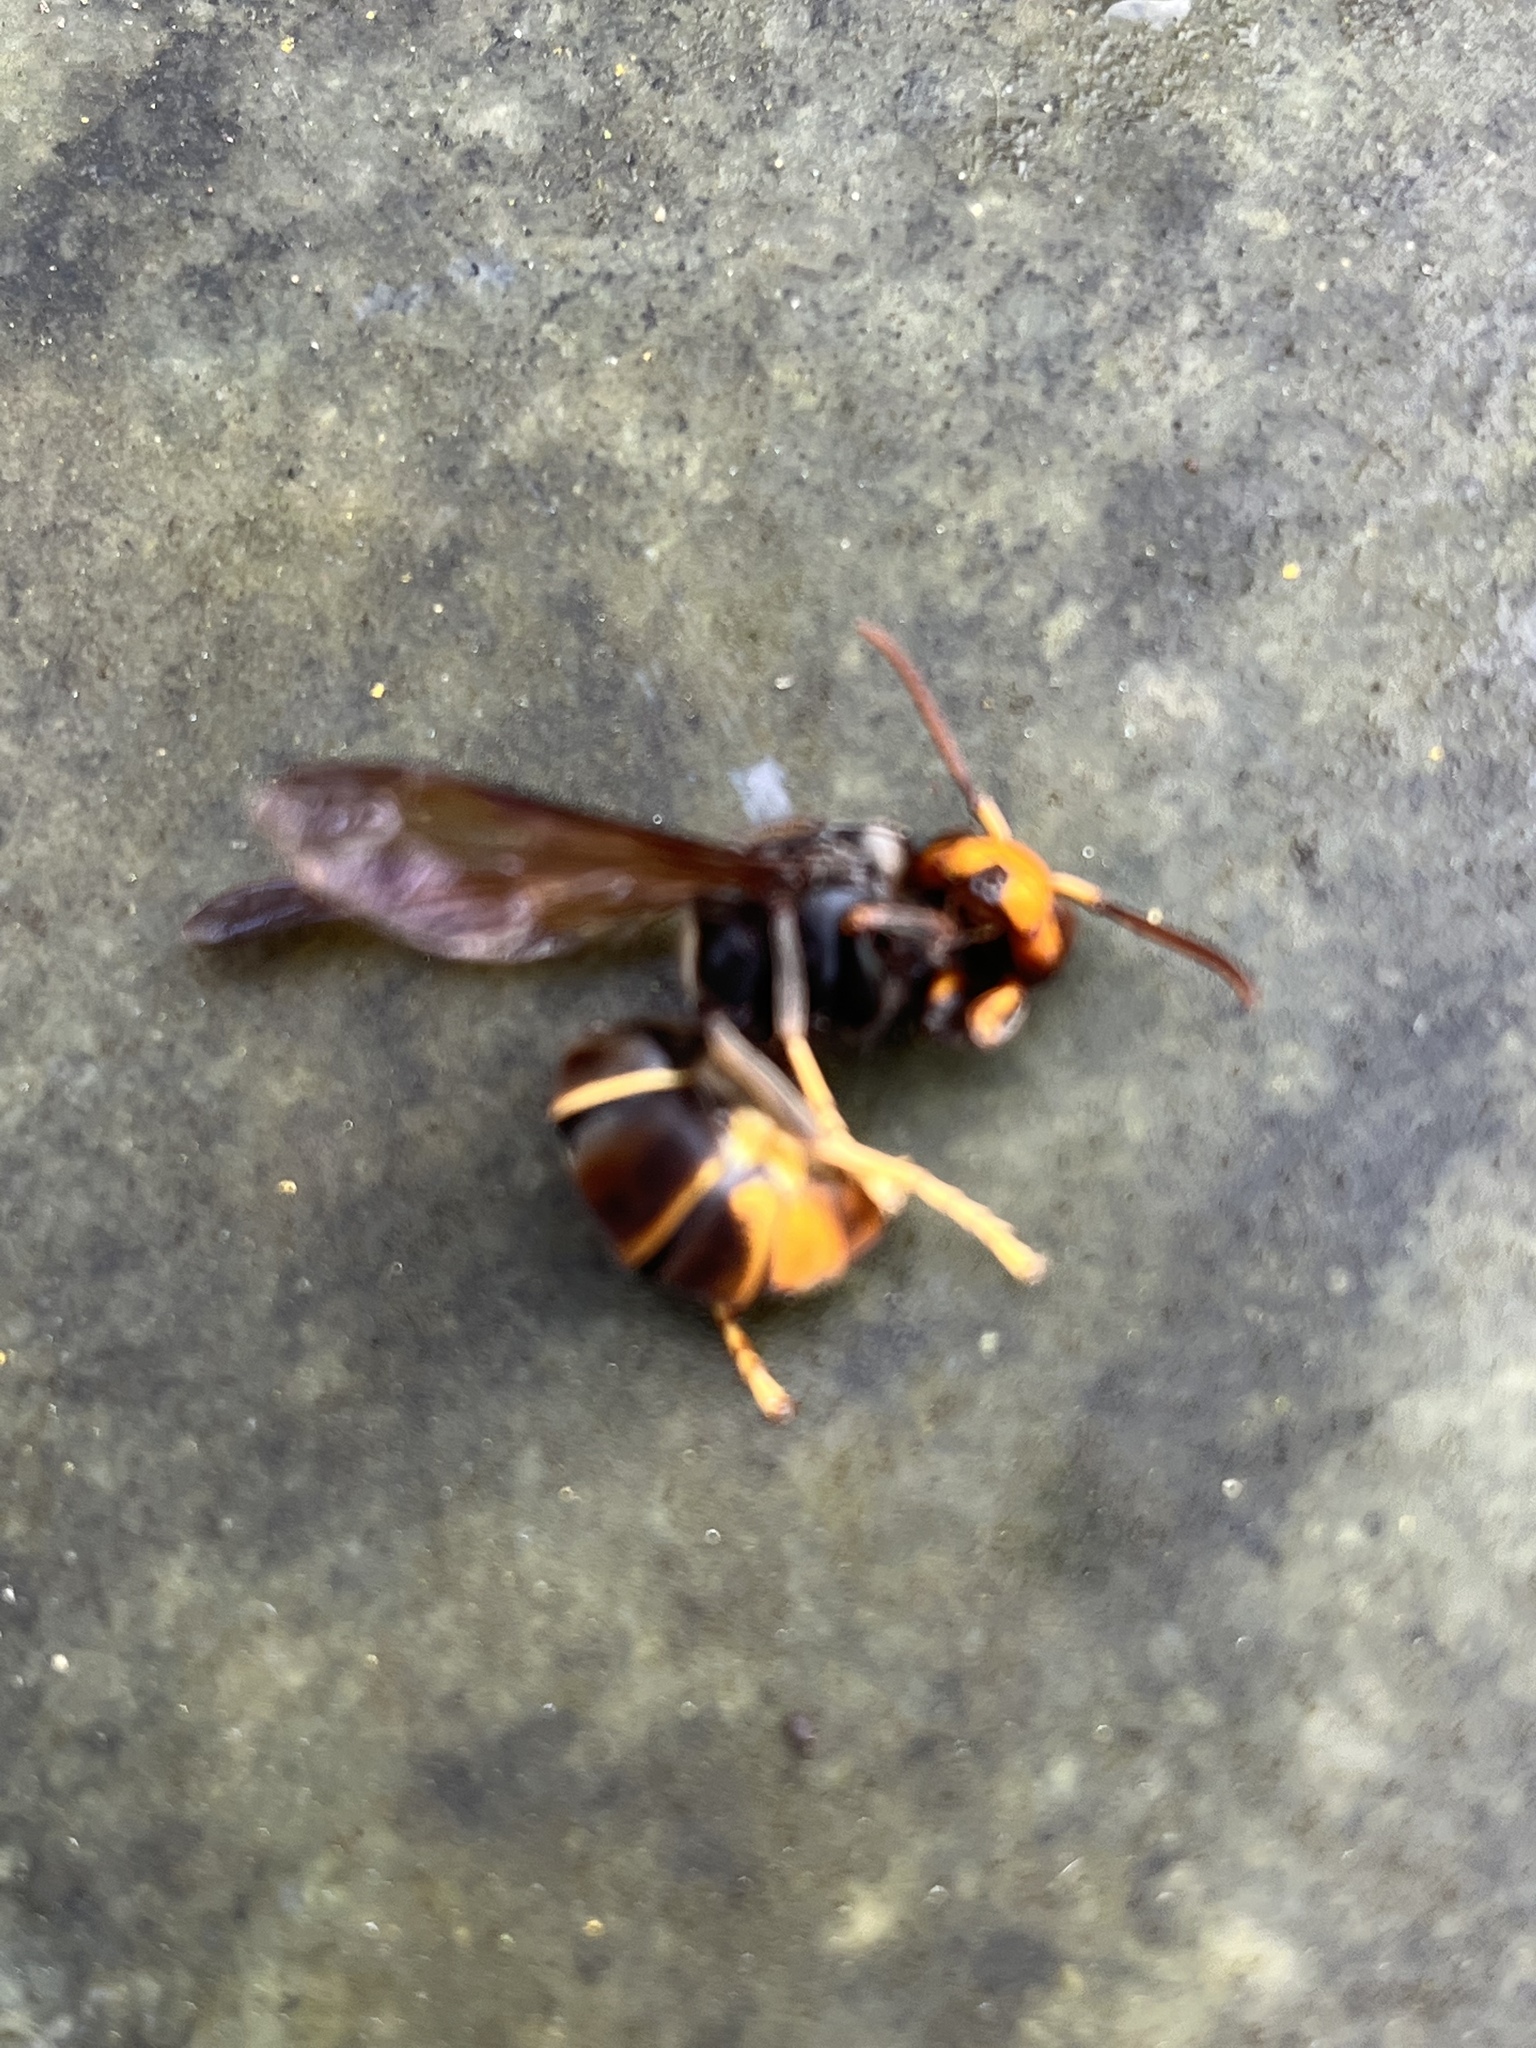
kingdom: Animalia
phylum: Arthropoda
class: Insecta
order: Hymenoptera
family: Vespidae
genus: Vespa
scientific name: Vespa velutina
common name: Asian hornet
